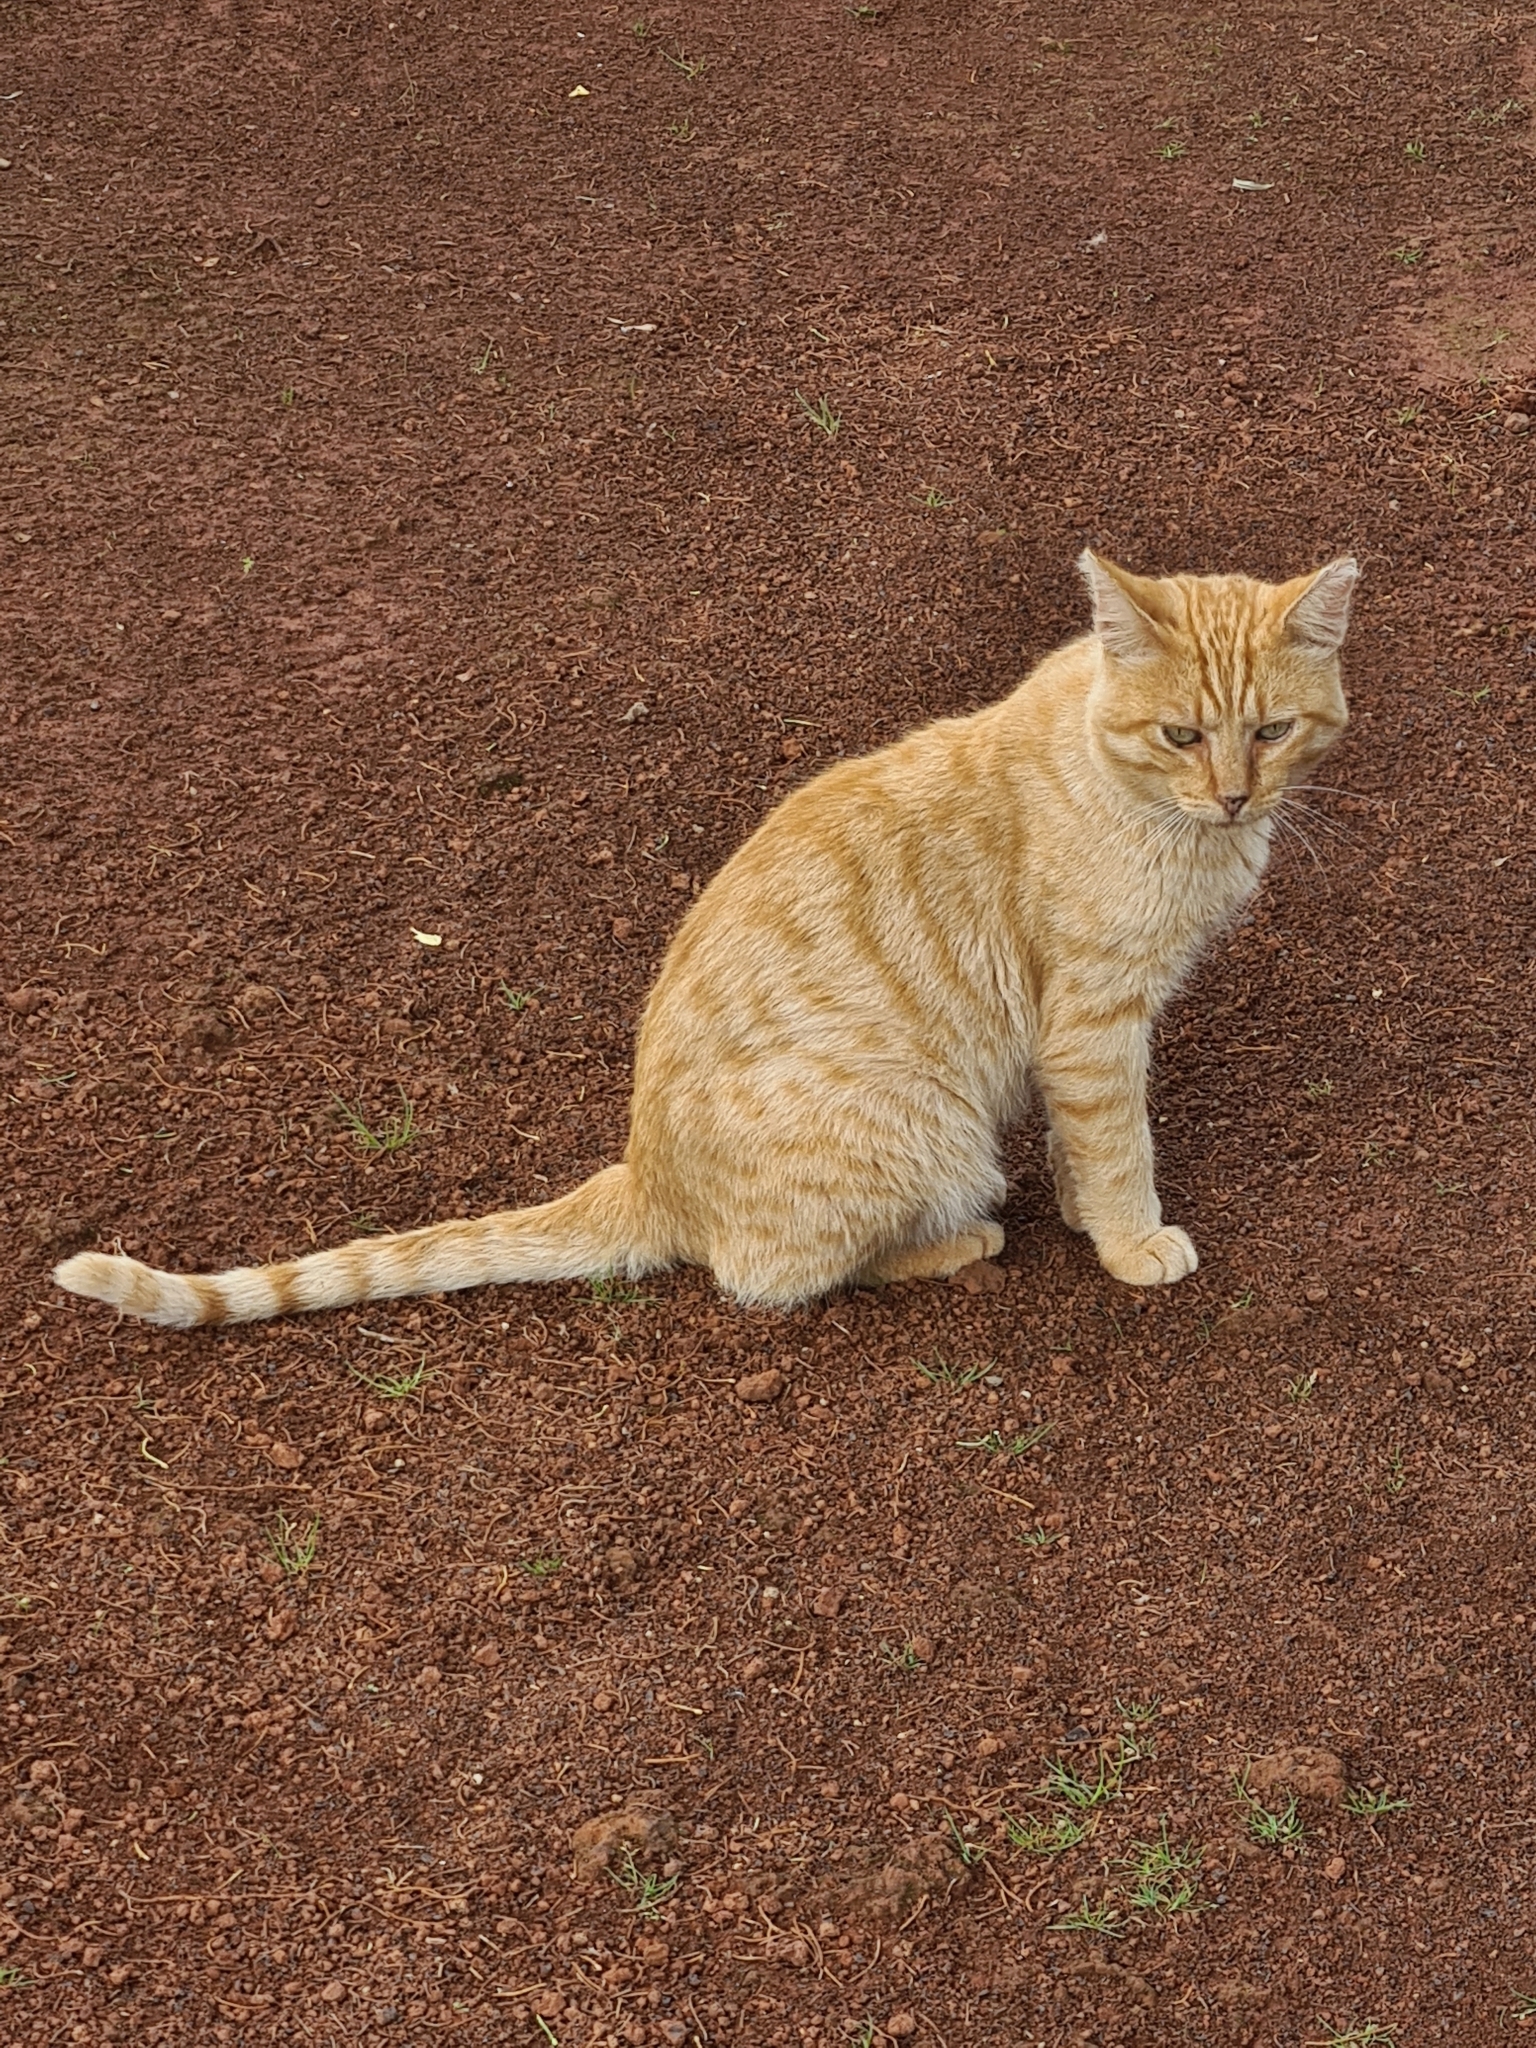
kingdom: Animalia
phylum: Chordata
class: Mammalia
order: Carnivora
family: Felidae
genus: Felis
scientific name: Felis catus
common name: Domestic cat
